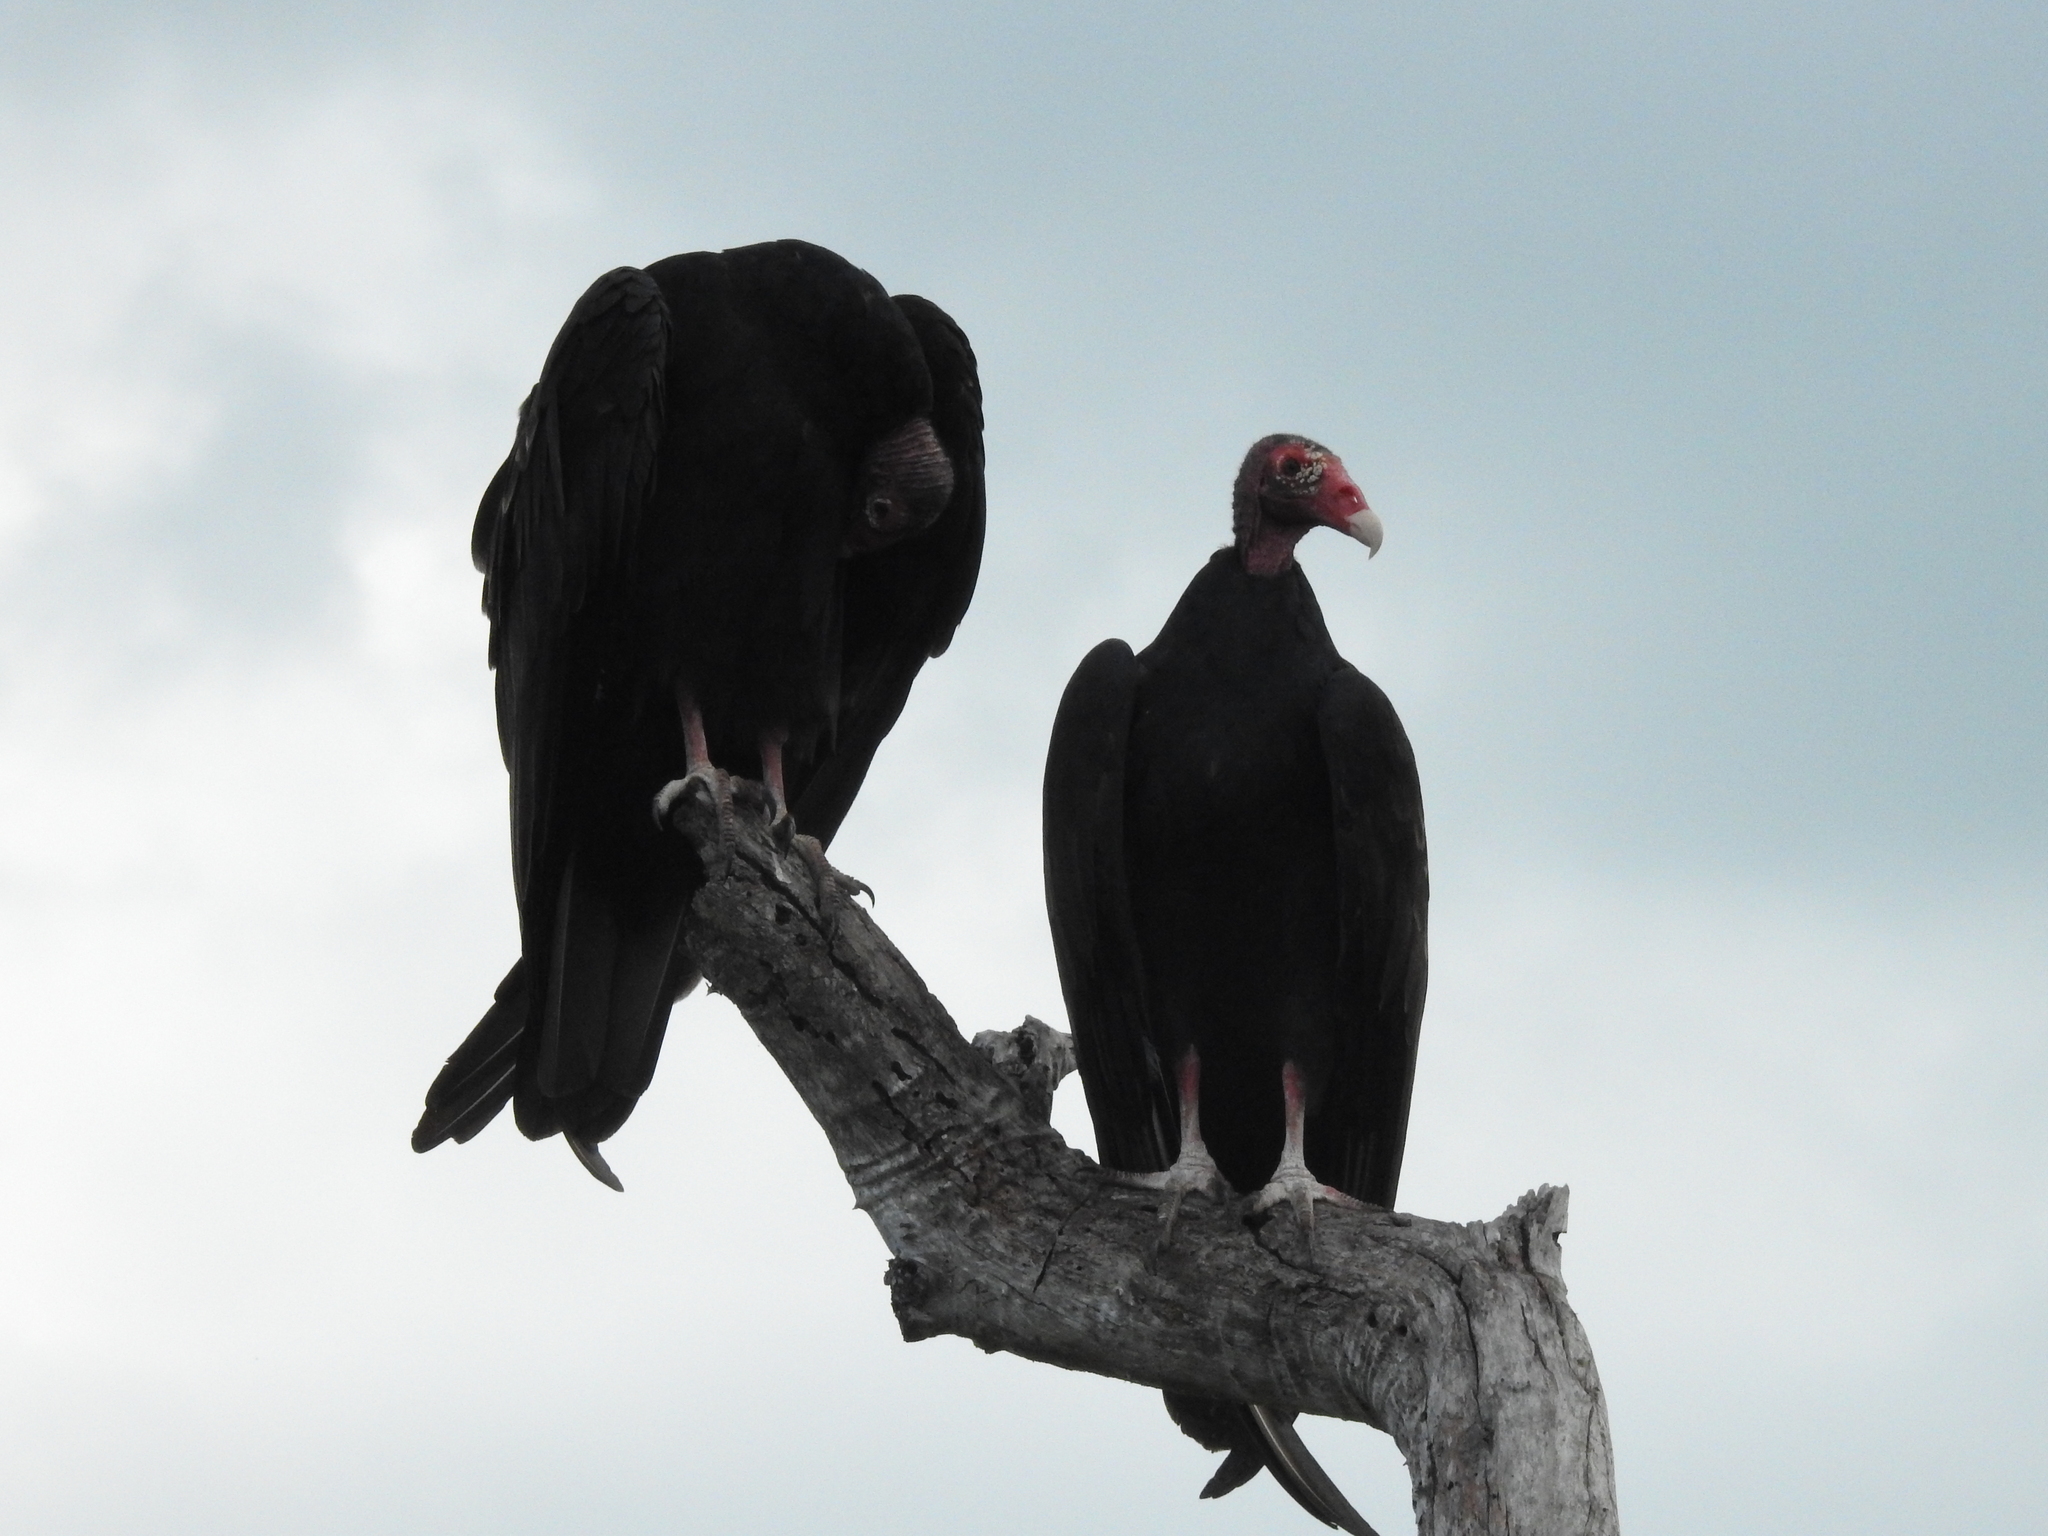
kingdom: Animalia
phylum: Chordata
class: Aves
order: Accipitriformes
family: Cathartidae
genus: Cathartes
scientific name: Cathartes aura
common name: Turkey vulture
